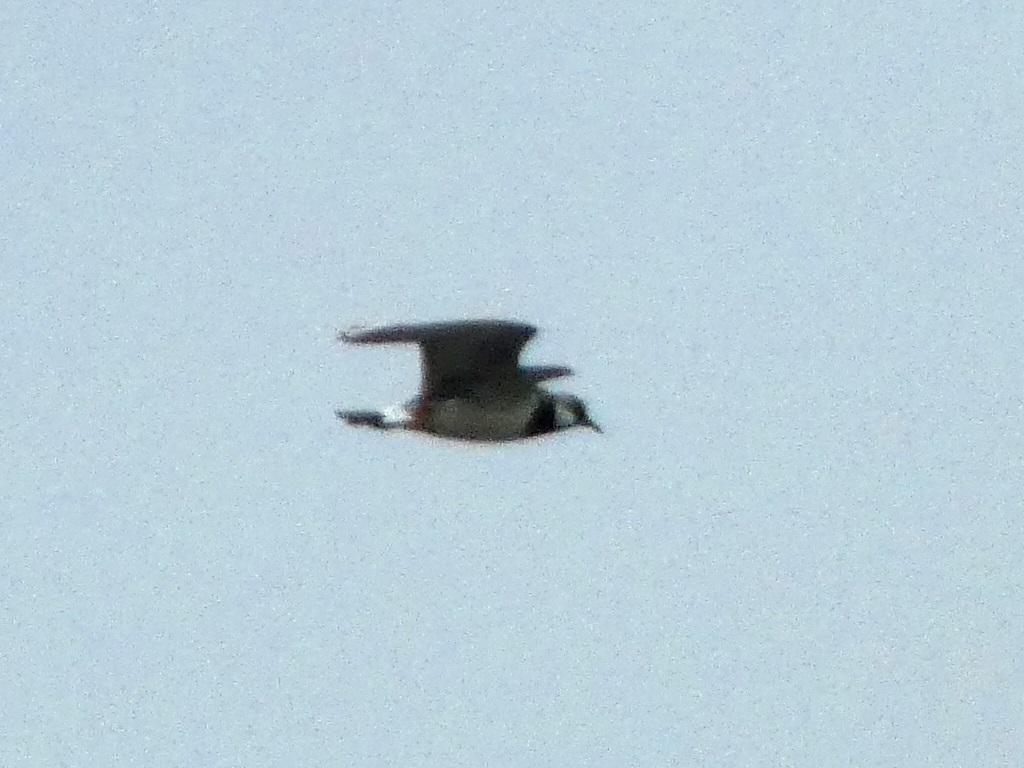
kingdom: Animalia
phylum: Chordata
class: Aves
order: Charadriiformes
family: Charadriidae
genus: Vanellus
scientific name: Vanellus vanellus
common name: Northern lapwing
